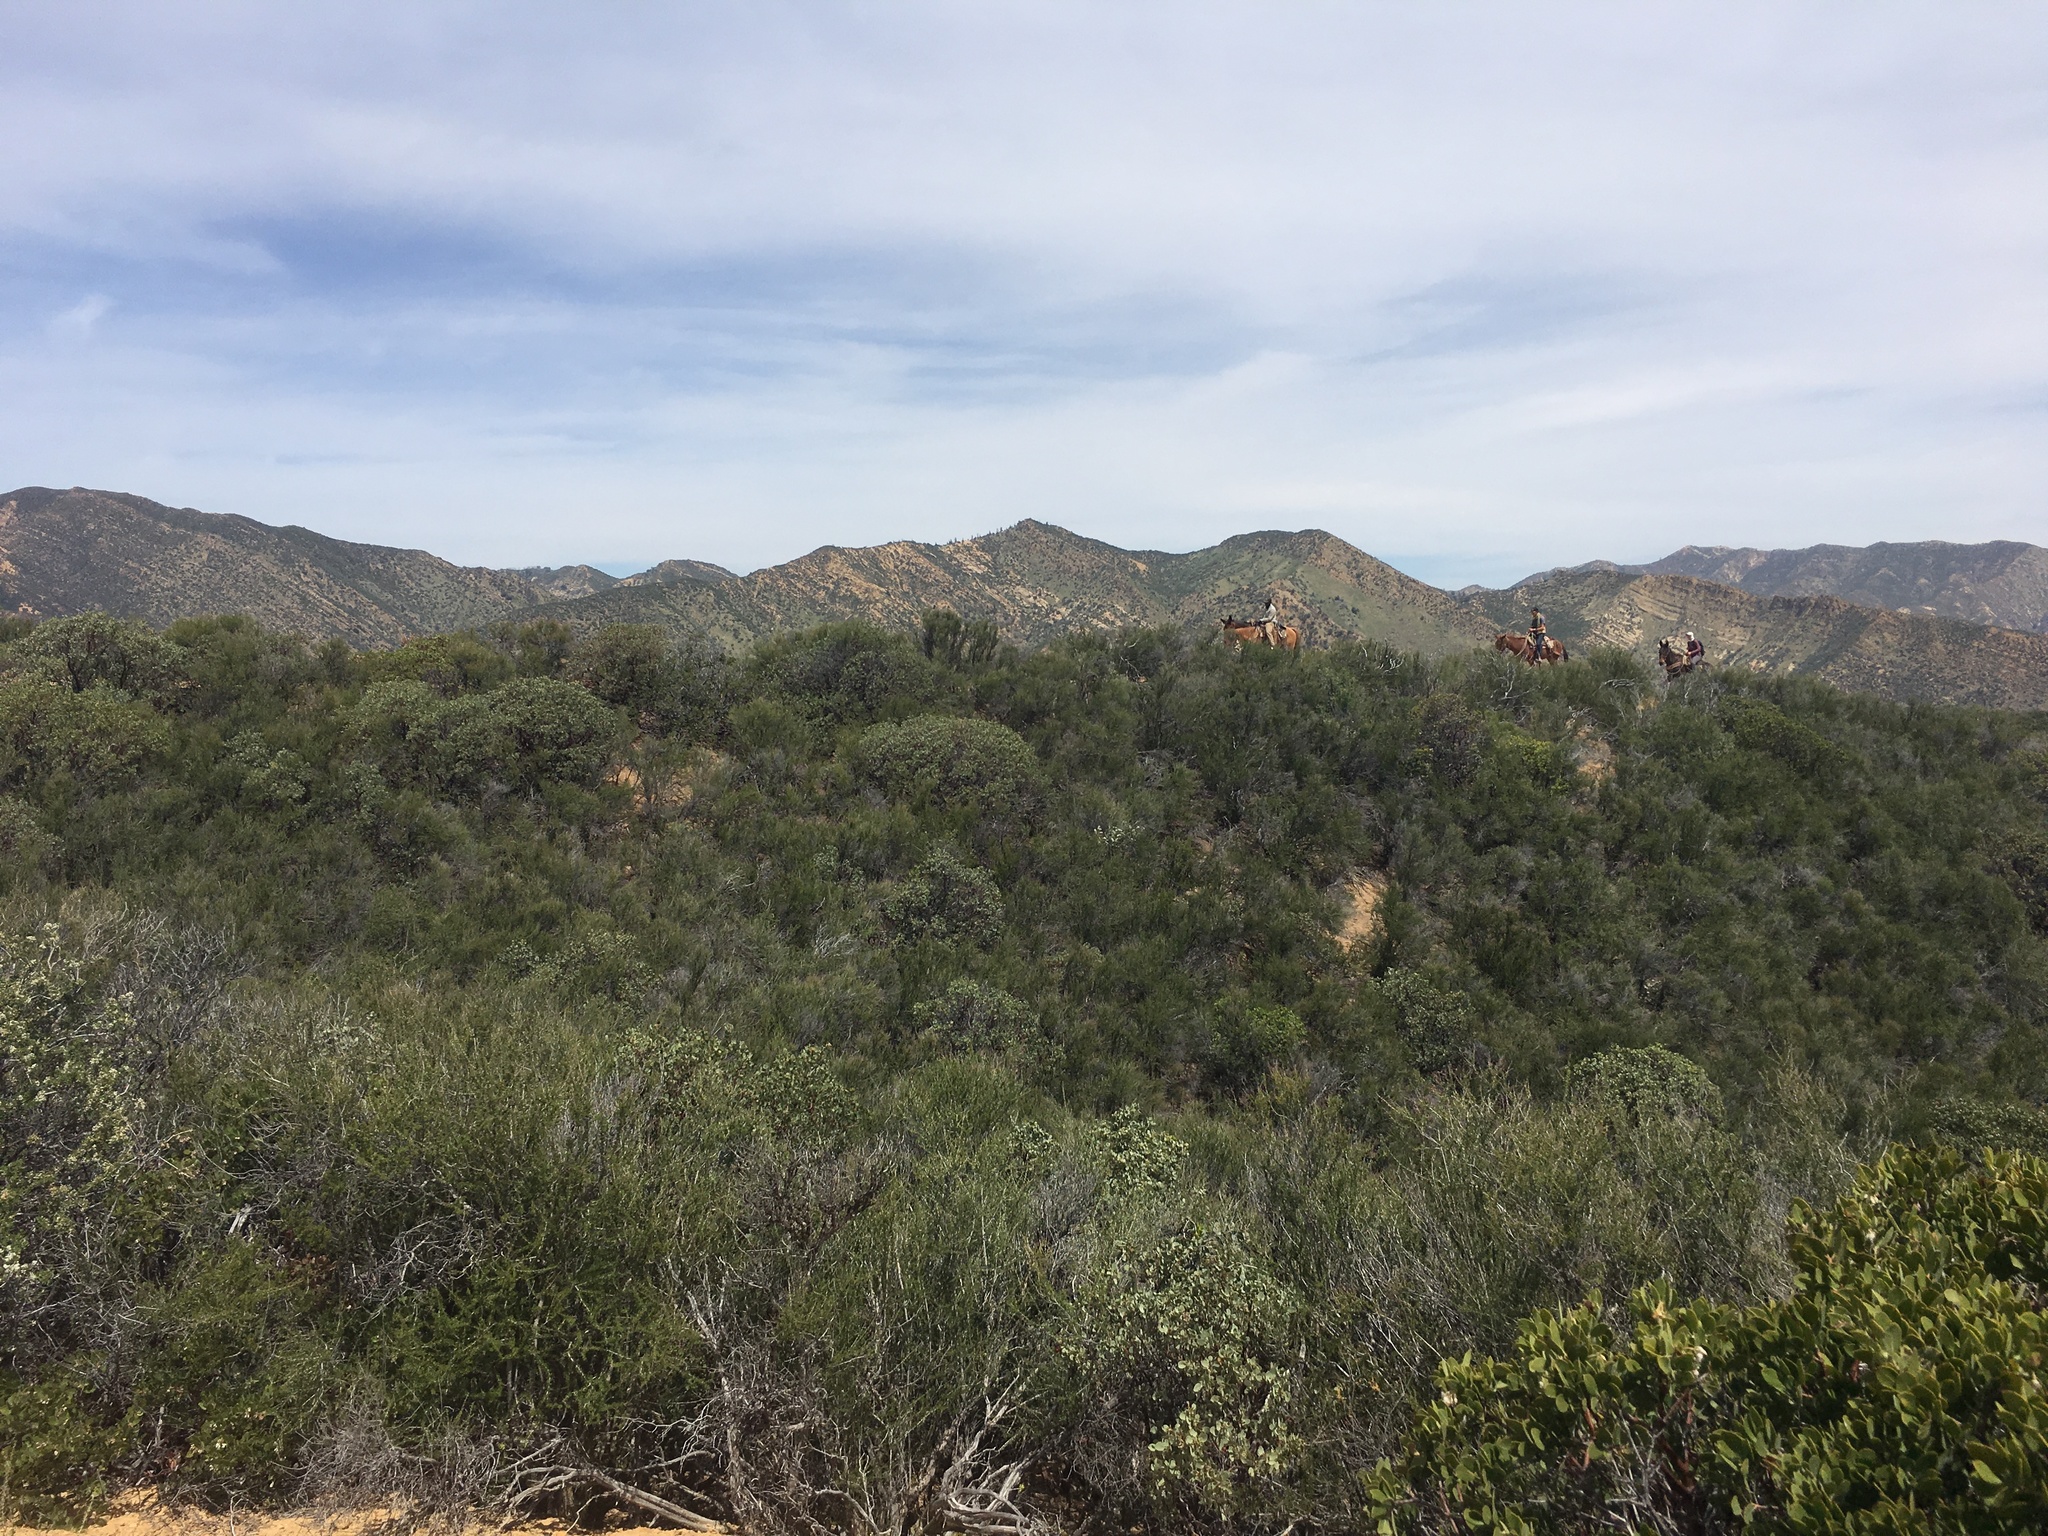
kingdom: Plantae
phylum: Tracheophyta
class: Magnoliopsida
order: Rosales
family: Rosaceae
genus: Adenostoma
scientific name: Adenostoma fasciculatum
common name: Chamise
